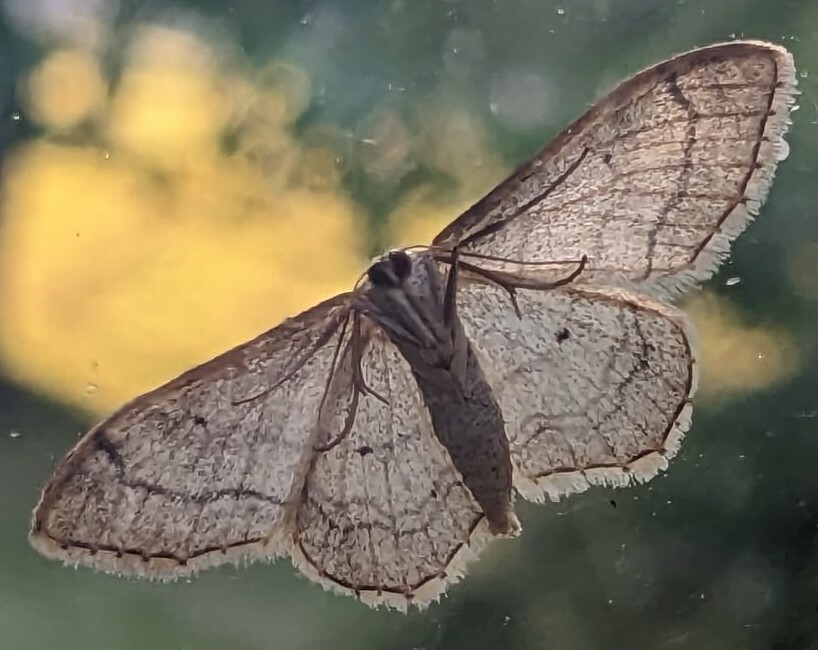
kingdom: Animalia
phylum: Arthropoda
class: Insecta
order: Lepidoptera
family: Geometridae
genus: Idaea
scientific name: Idaea aversata
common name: Riband wave
